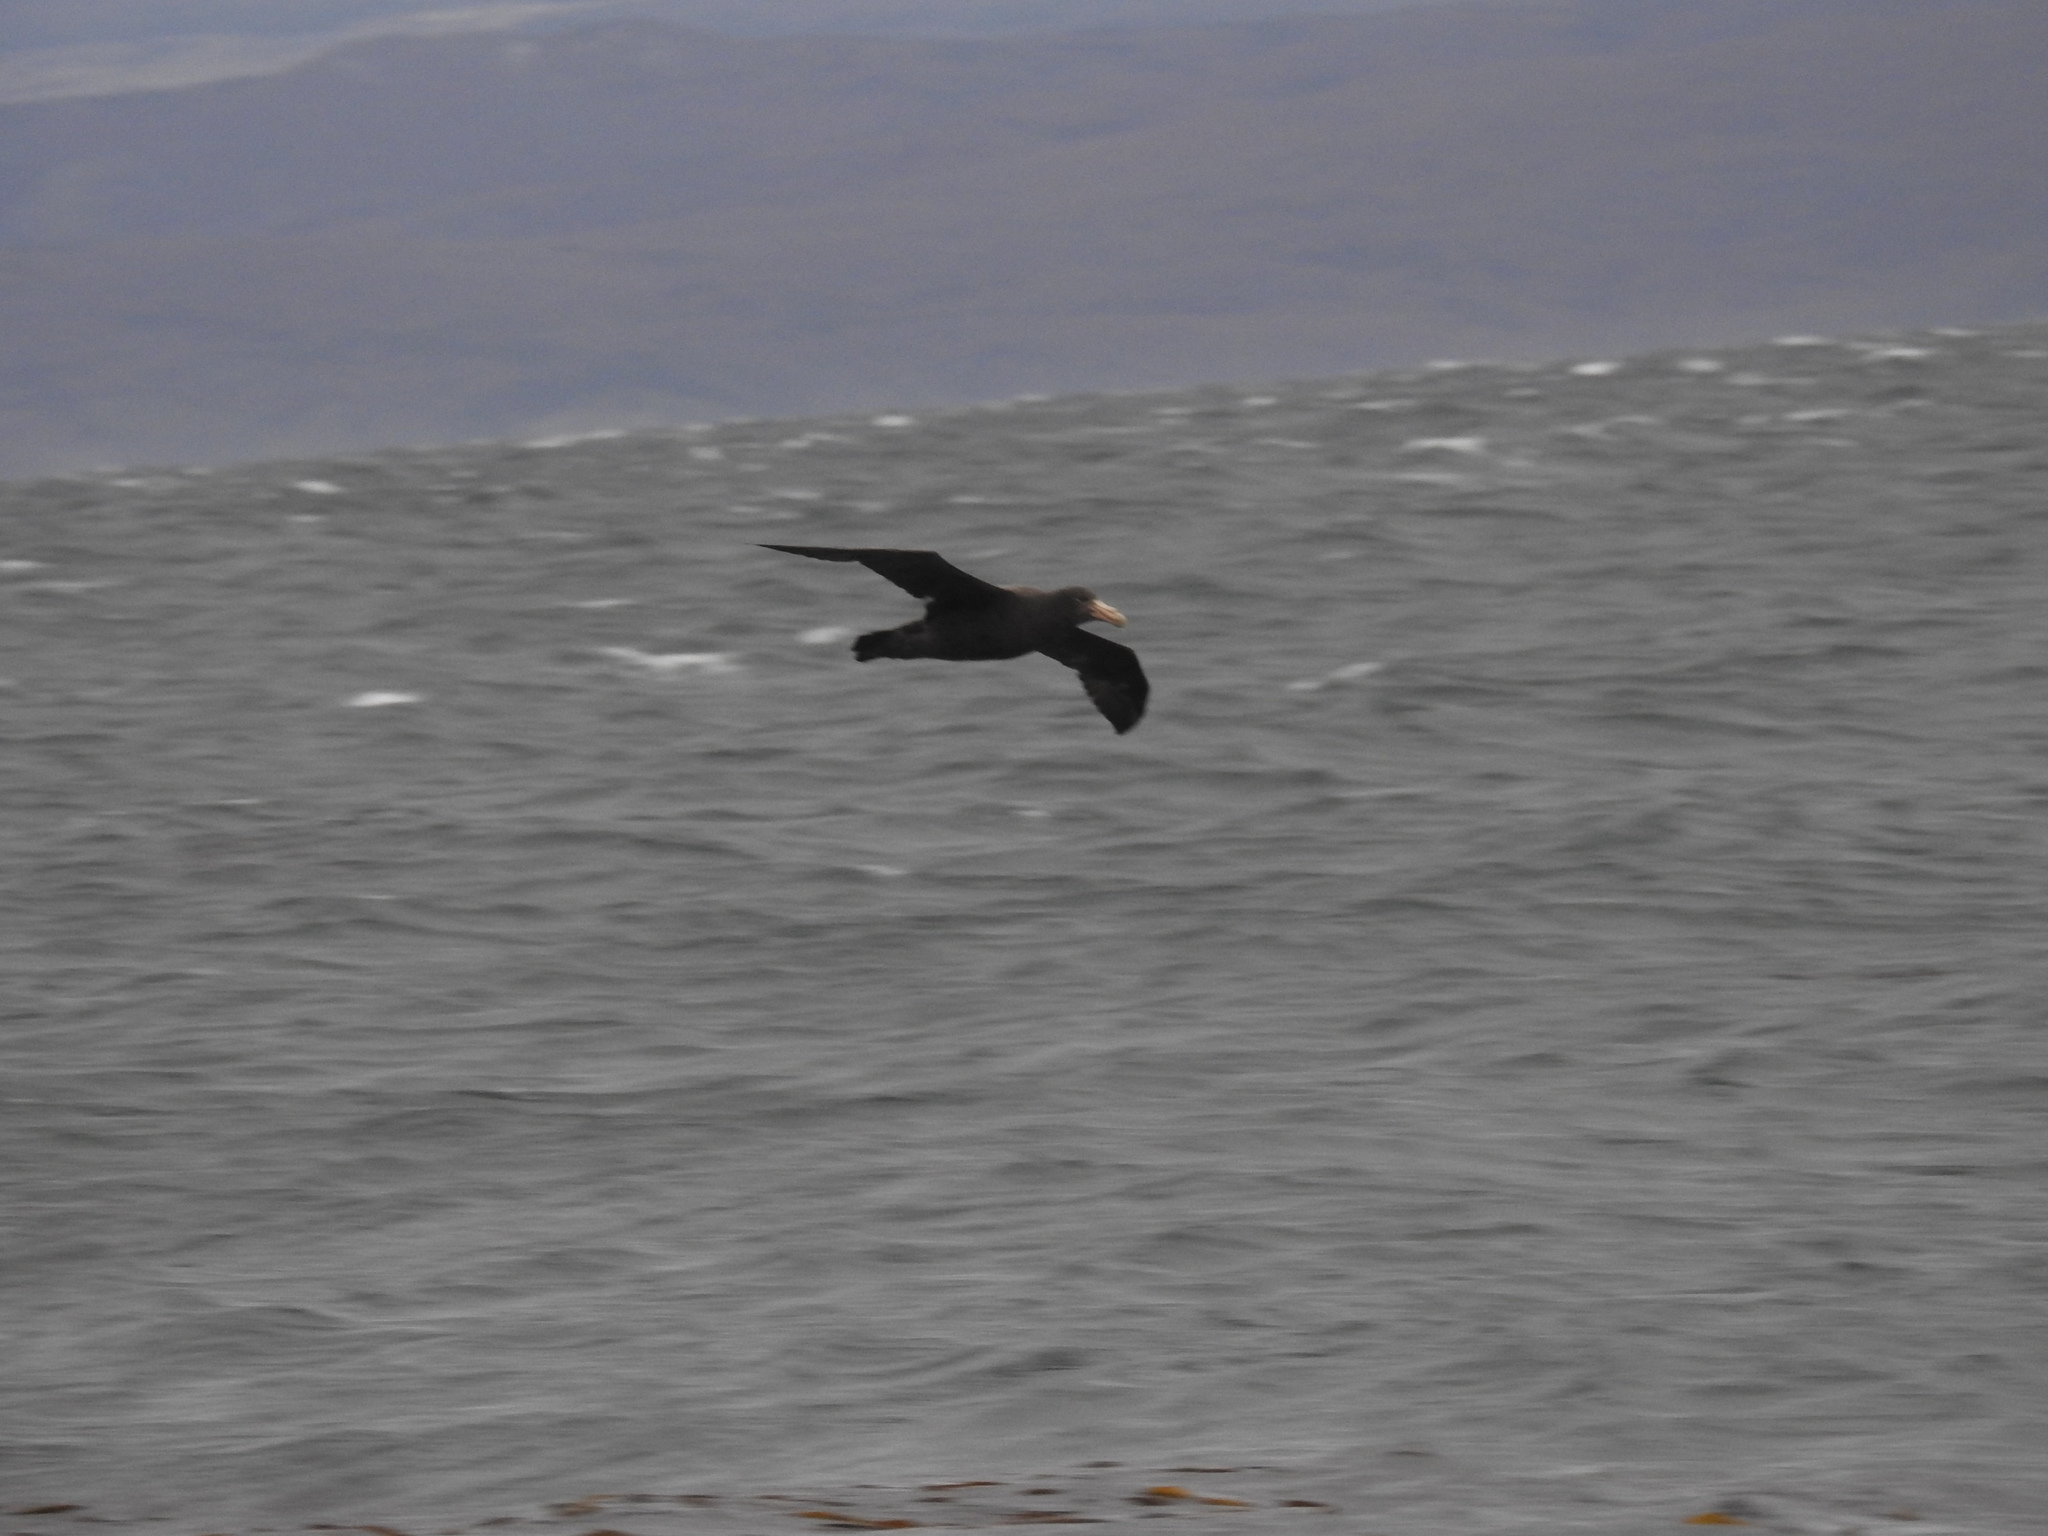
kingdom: Animalia
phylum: Chordata
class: Aves
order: Procellariiformes
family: Procellariidae
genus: Macronectes
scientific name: Macronectes giganteus
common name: Southern giant petrel
